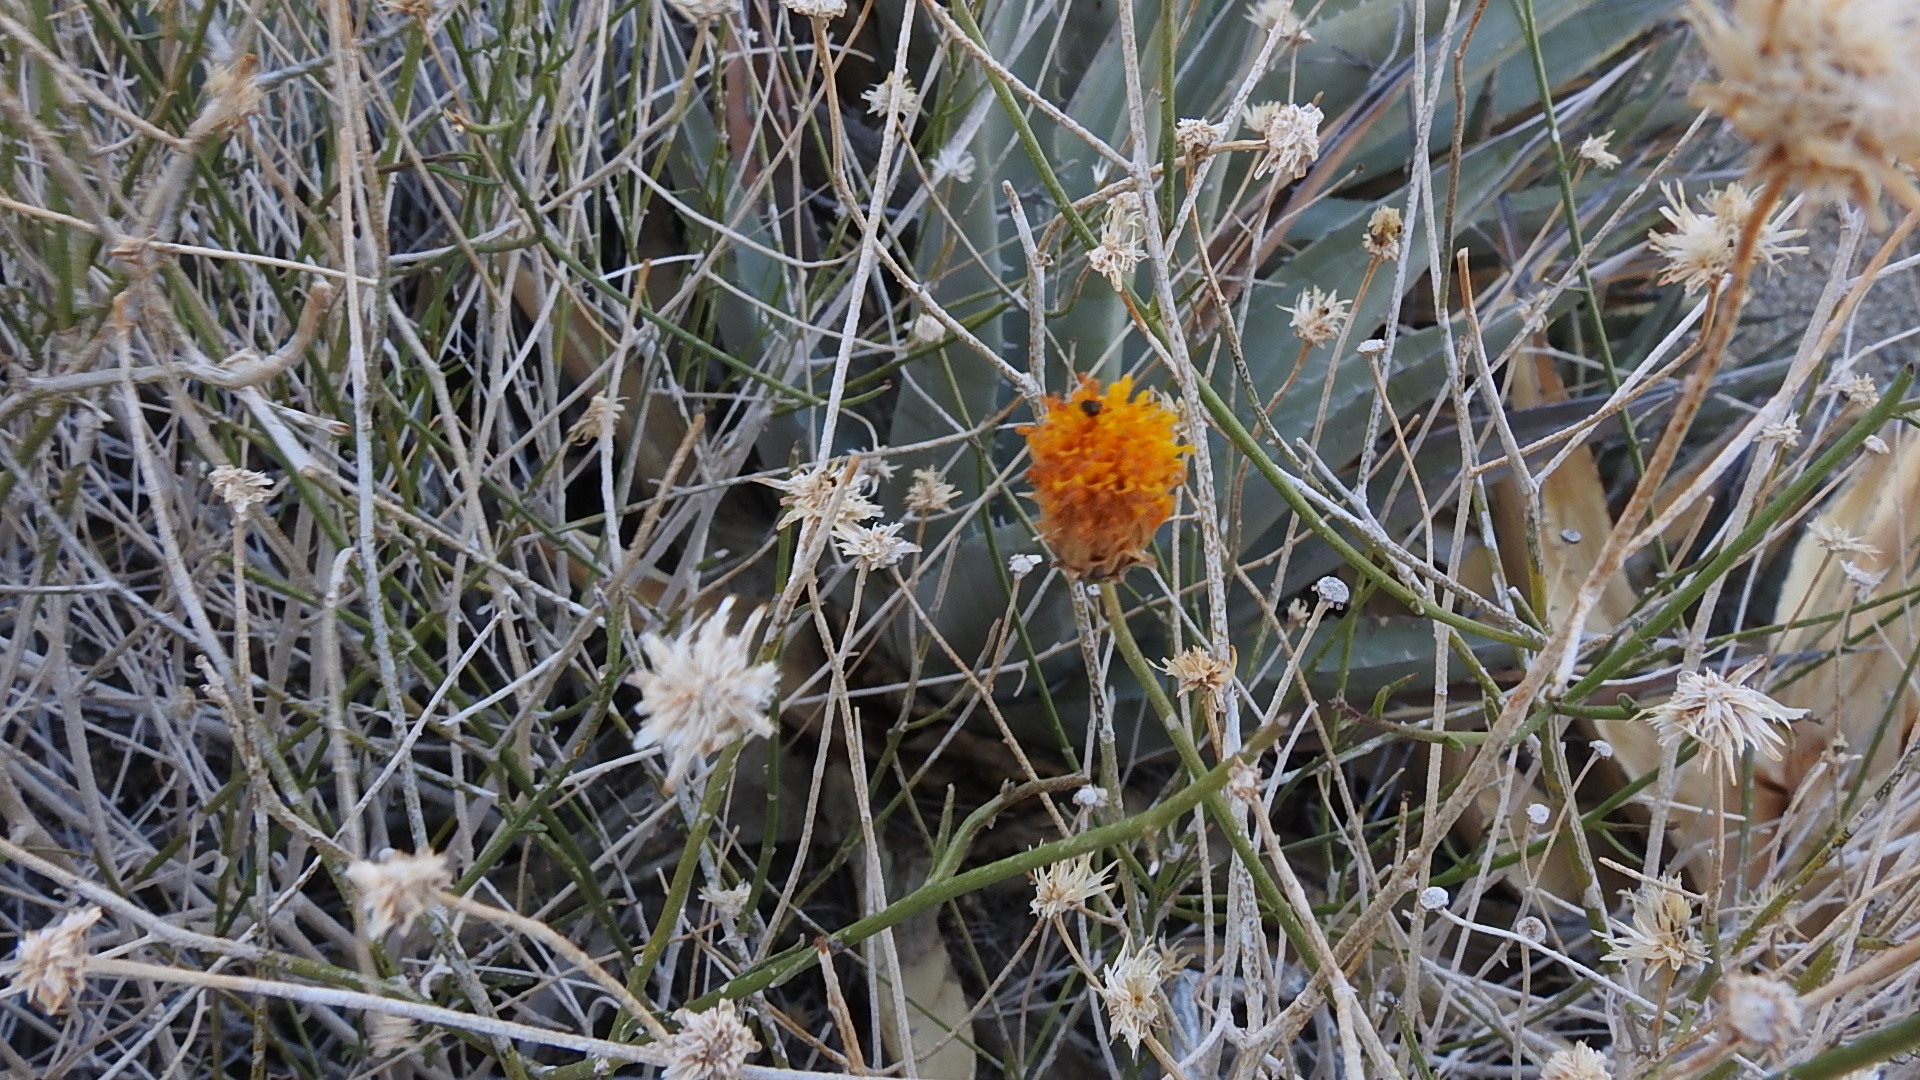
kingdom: Plantae
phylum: Tracheophyta
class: Magnoliopsida
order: Asterales
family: Asteraceae
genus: Bebbia
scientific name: Bebbia juncea
